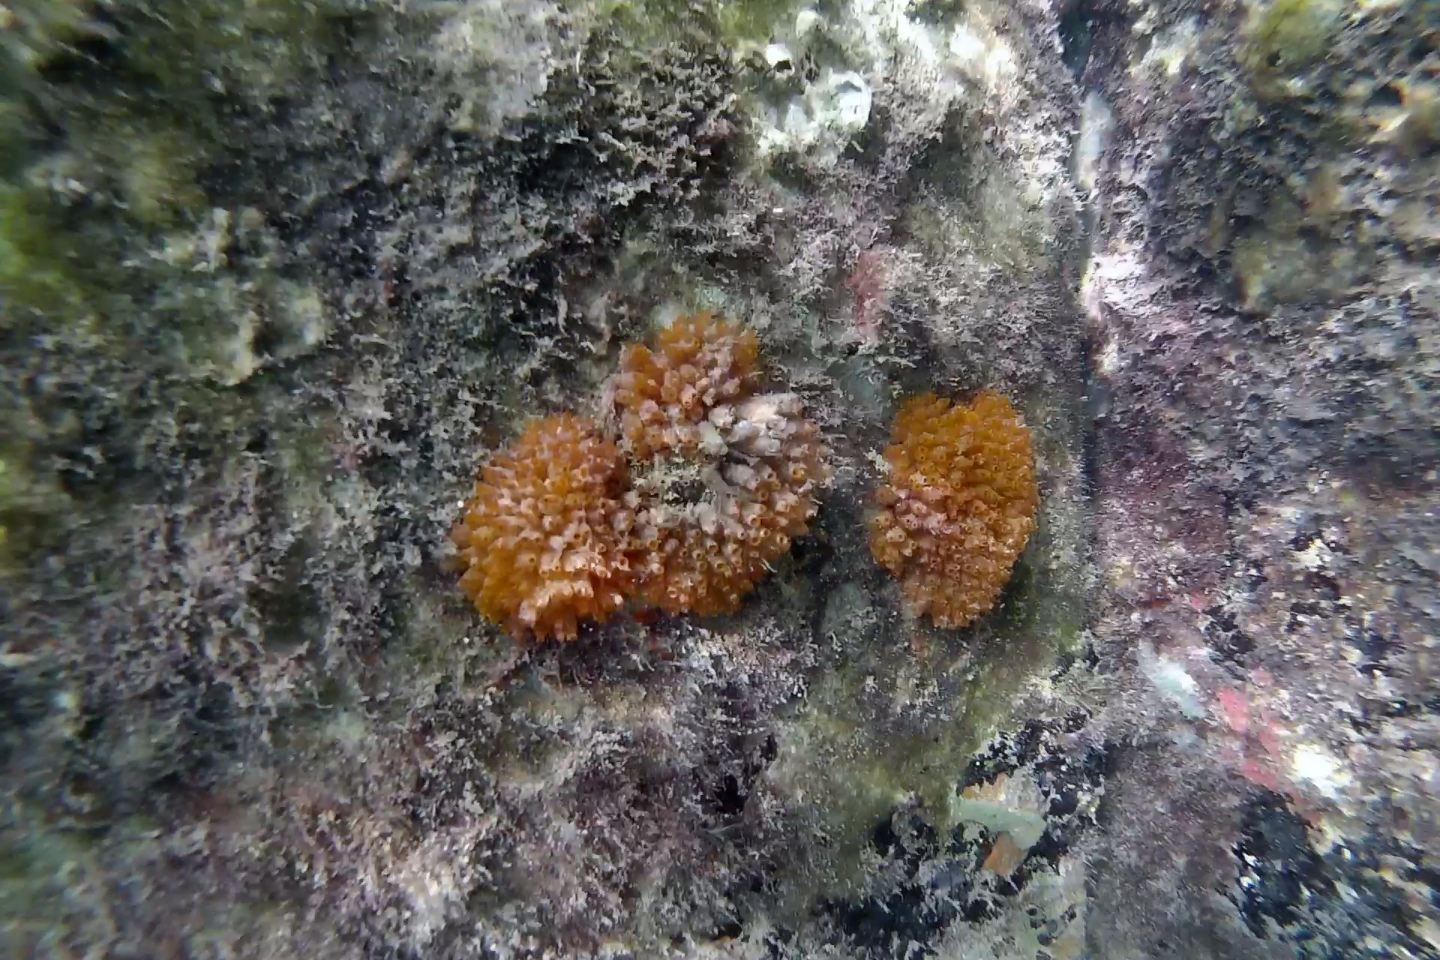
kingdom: Animalia
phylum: Chordata
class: Ascidiacea
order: Phlebobranchia
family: Perophoridae
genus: Ecteinascidia
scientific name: Ecteinascidia turbinata
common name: Mangrove tunicate
